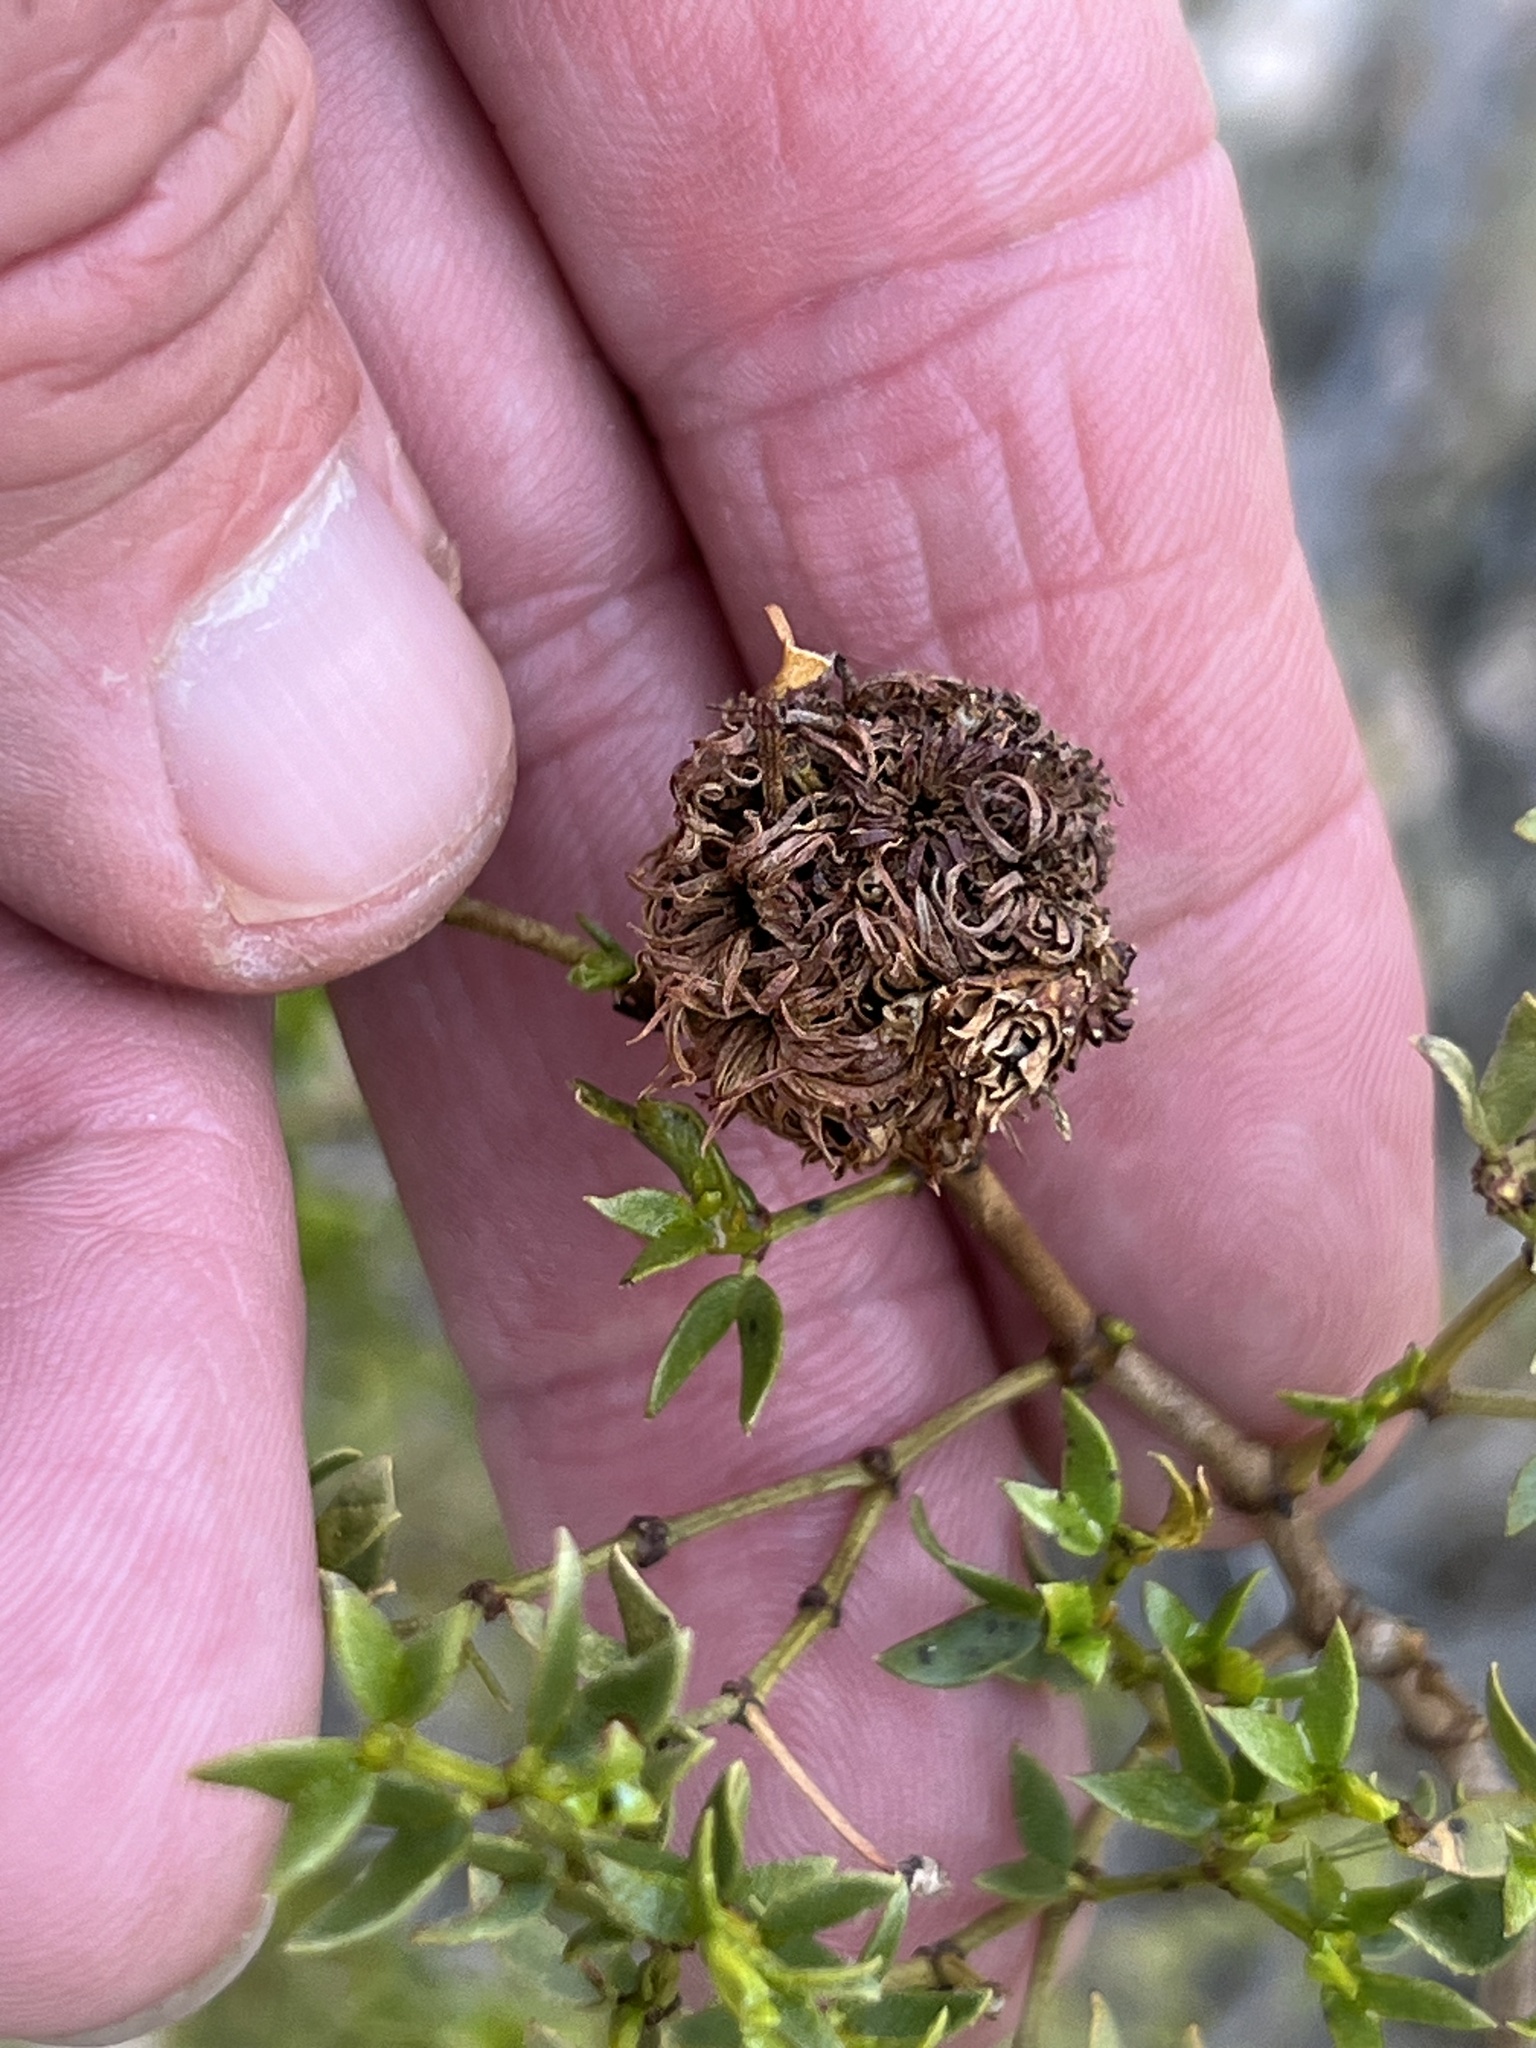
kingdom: Animalia
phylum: Arthropoda
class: Insecta
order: Diptera
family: Cecidomyiidae
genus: Asphondylia
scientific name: Asphondylia auripila
